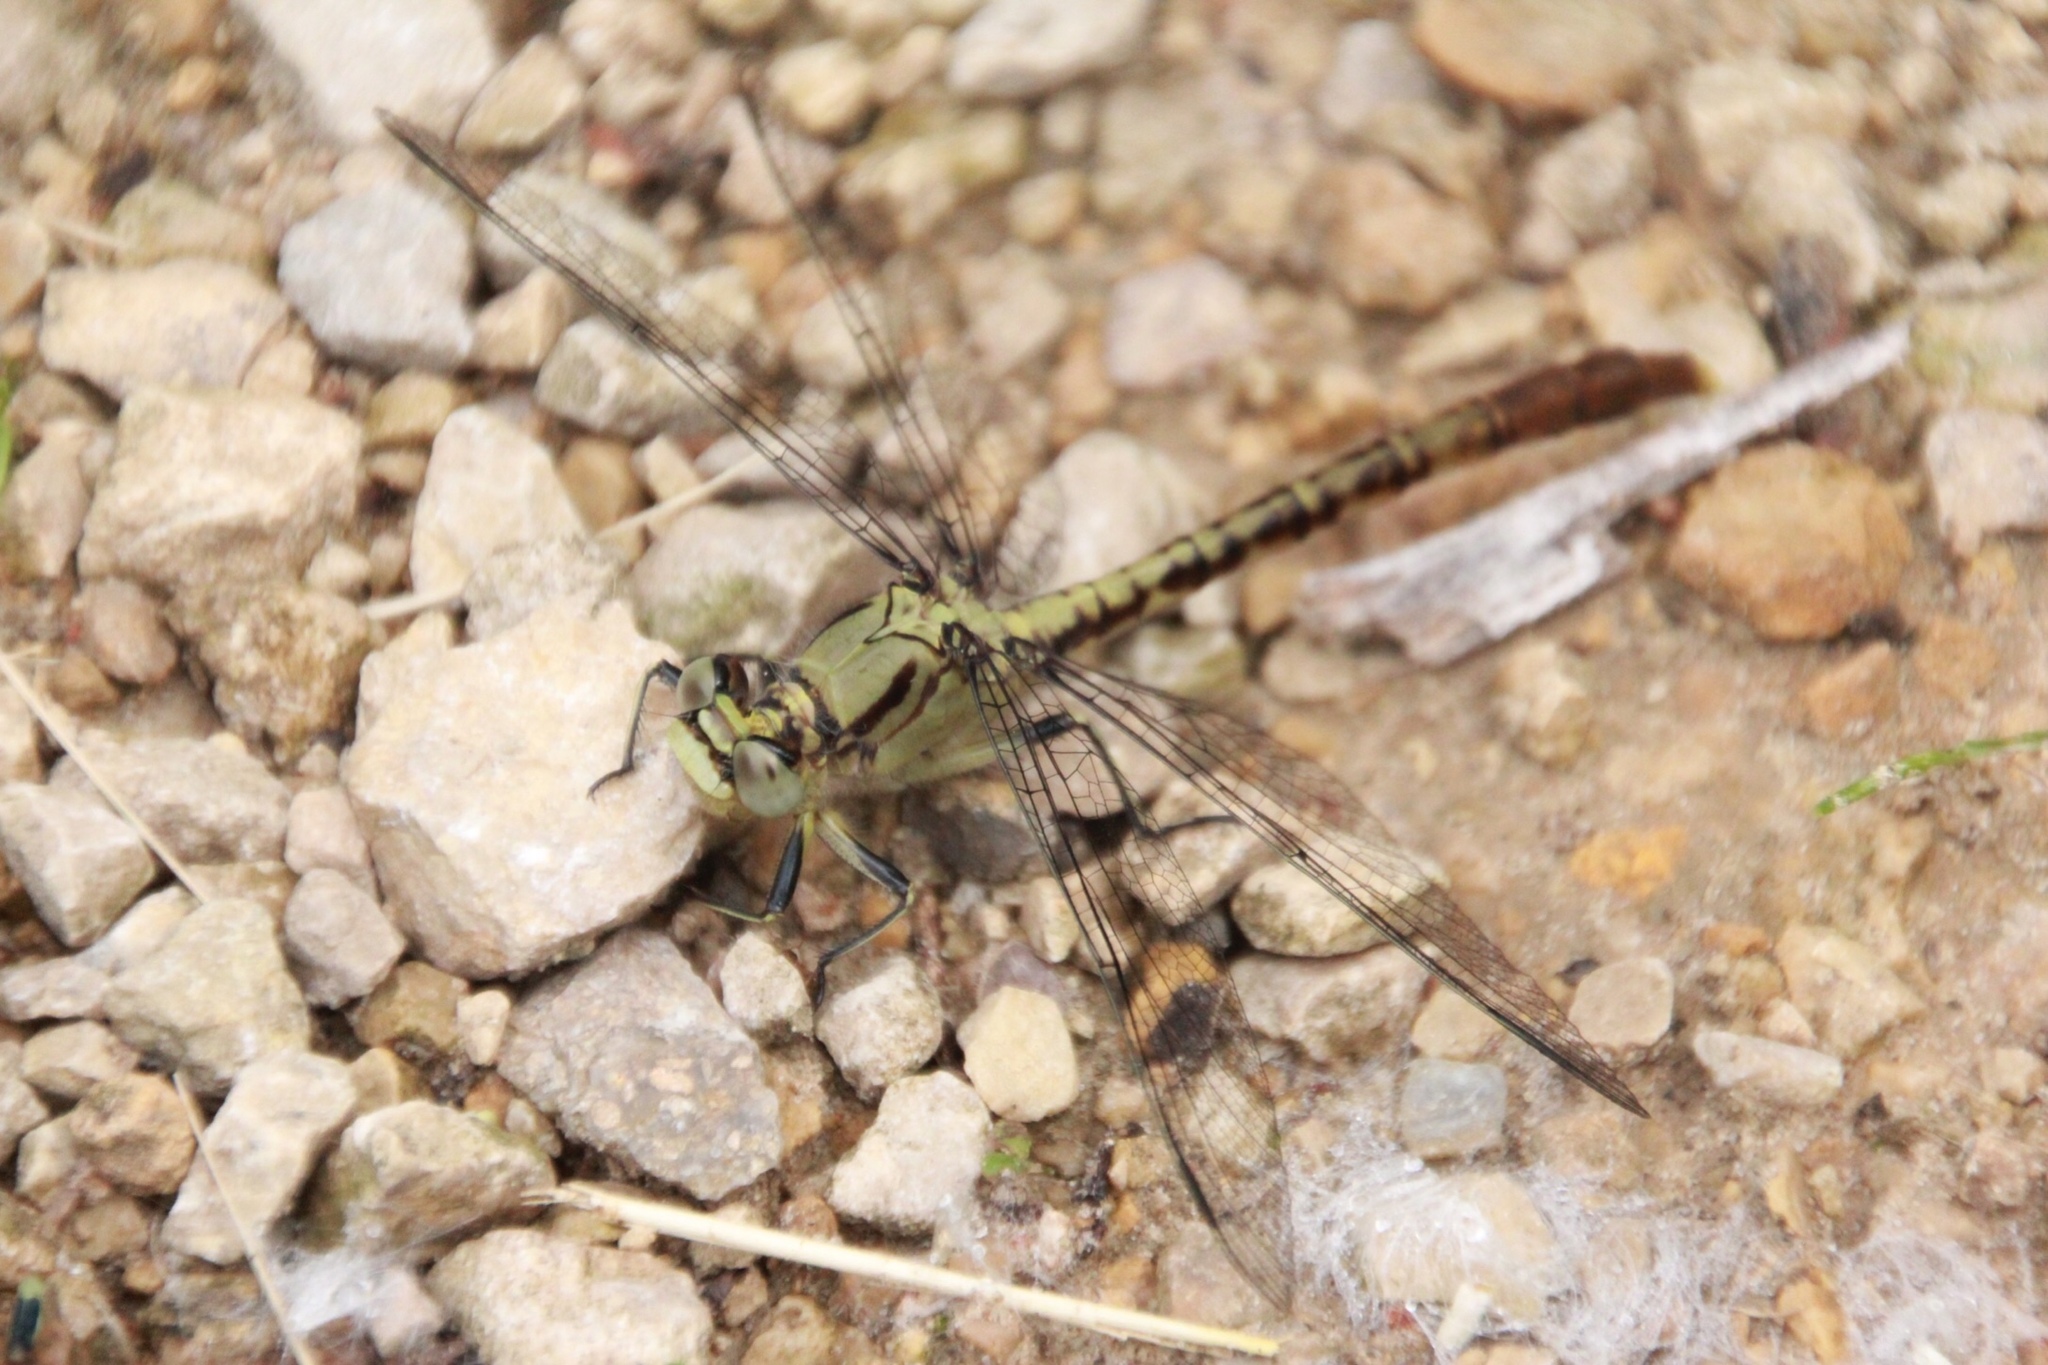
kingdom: Animalia
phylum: Arthropoda
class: Insecta
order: Odonata
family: Gomphidae
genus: Arigomphus
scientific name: Arigomphus submedianus
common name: Jade clubtail
